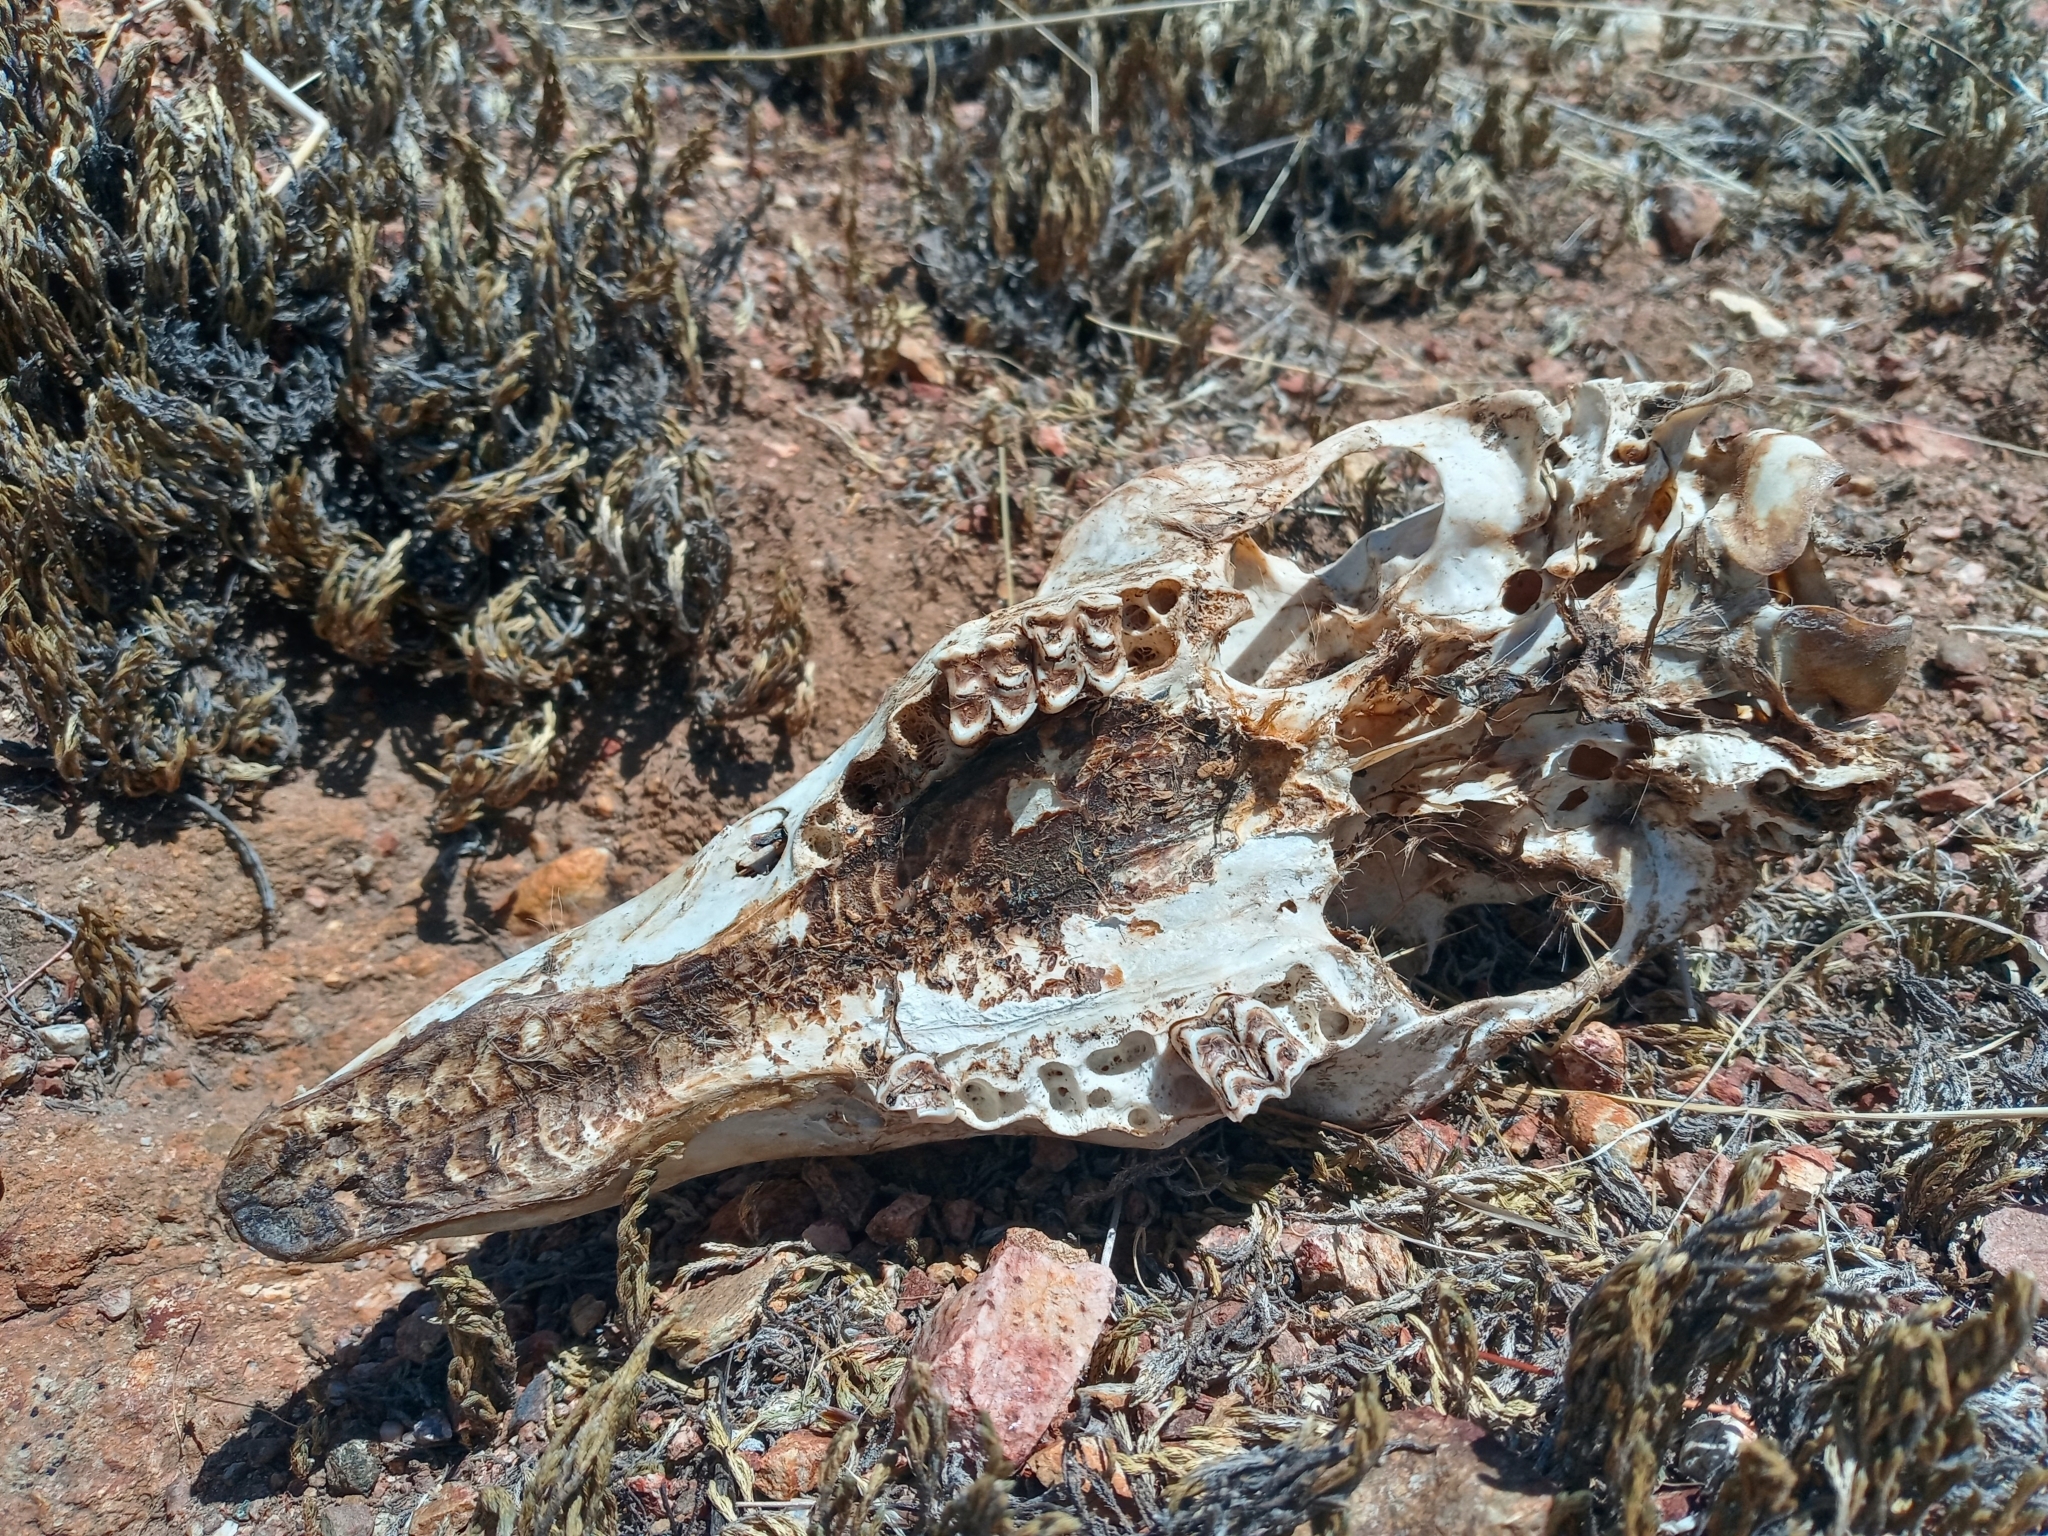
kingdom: Animalia
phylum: Chordata
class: Mammalia
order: Artiodactyla
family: Cervidae
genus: Odocoileus
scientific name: Odocoileus hemionus
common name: Mule deer
